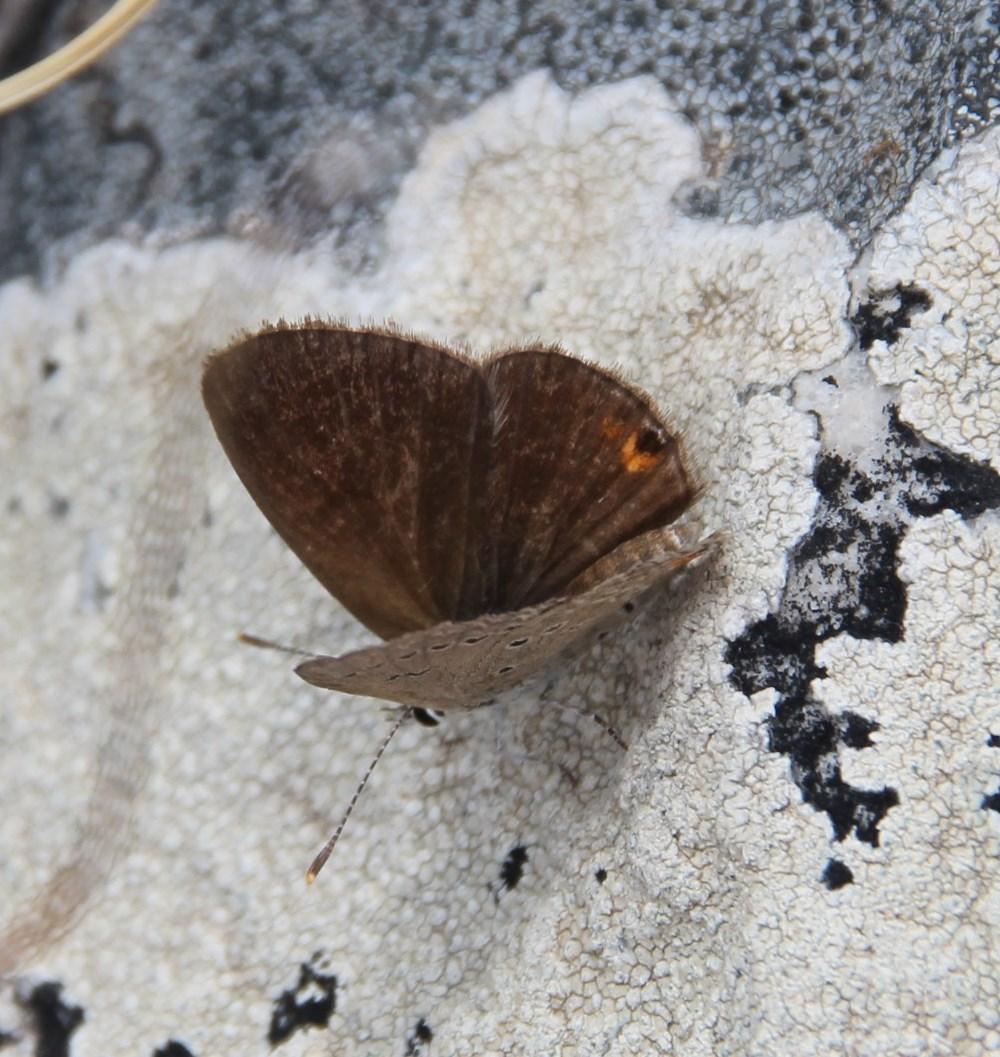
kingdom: Animalia
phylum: Arthropoda
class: Insecta
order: Lepidoptera
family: Lycaenidae
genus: Eicochrysops
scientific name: Eicochrysops messapus
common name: Cupreous blue
